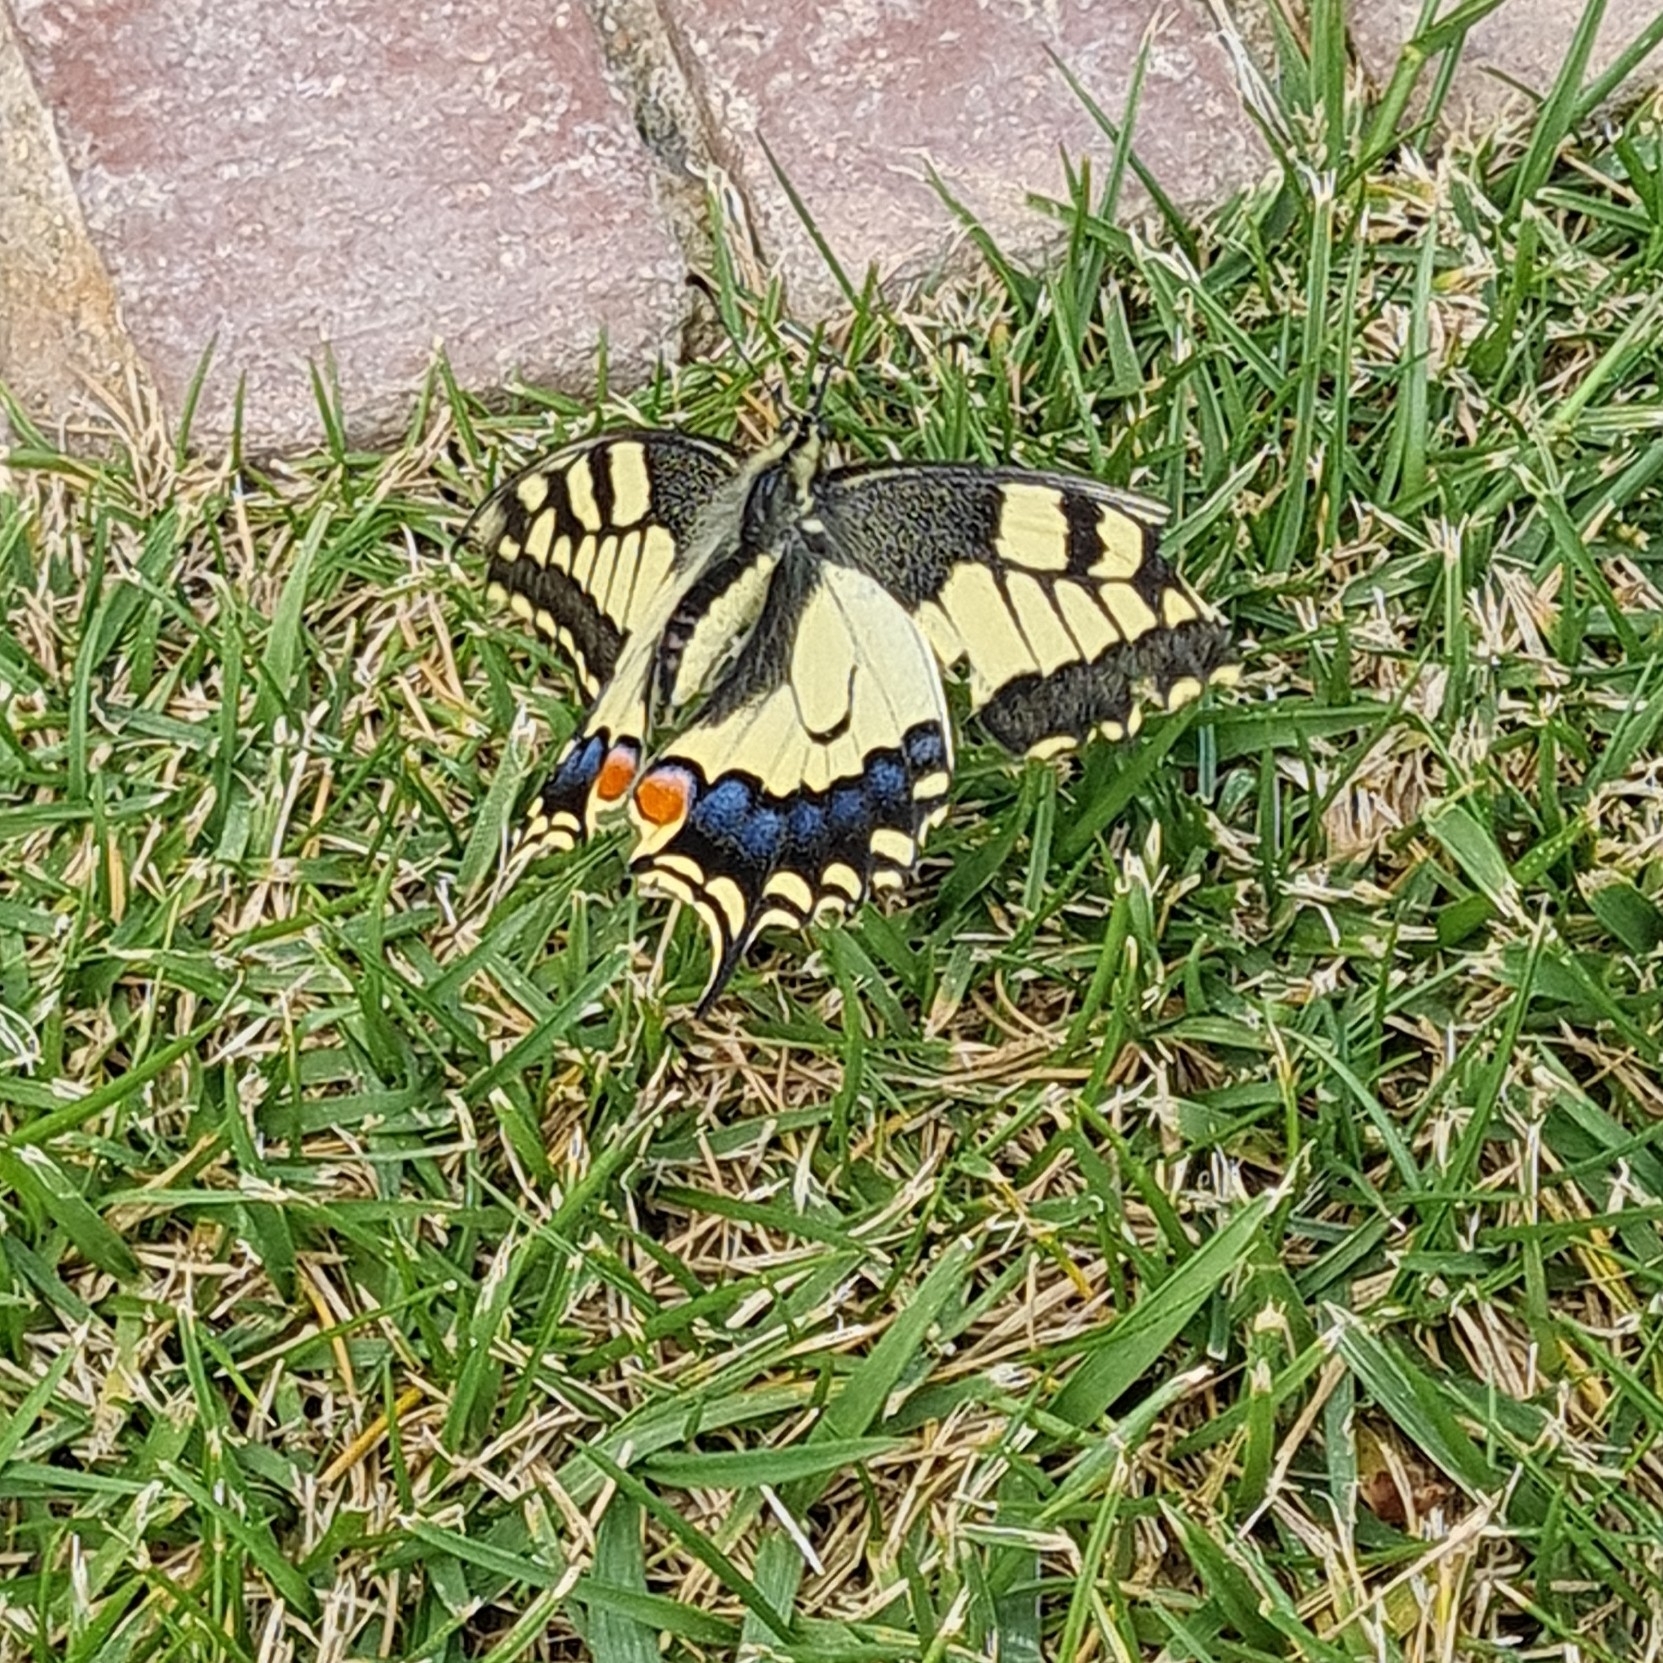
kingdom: Animalia
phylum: Arthropoda
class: Insecta
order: Lepidoptera
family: Papilionidae
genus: Papilio
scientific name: Papilio machaon
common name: Swallowtail
